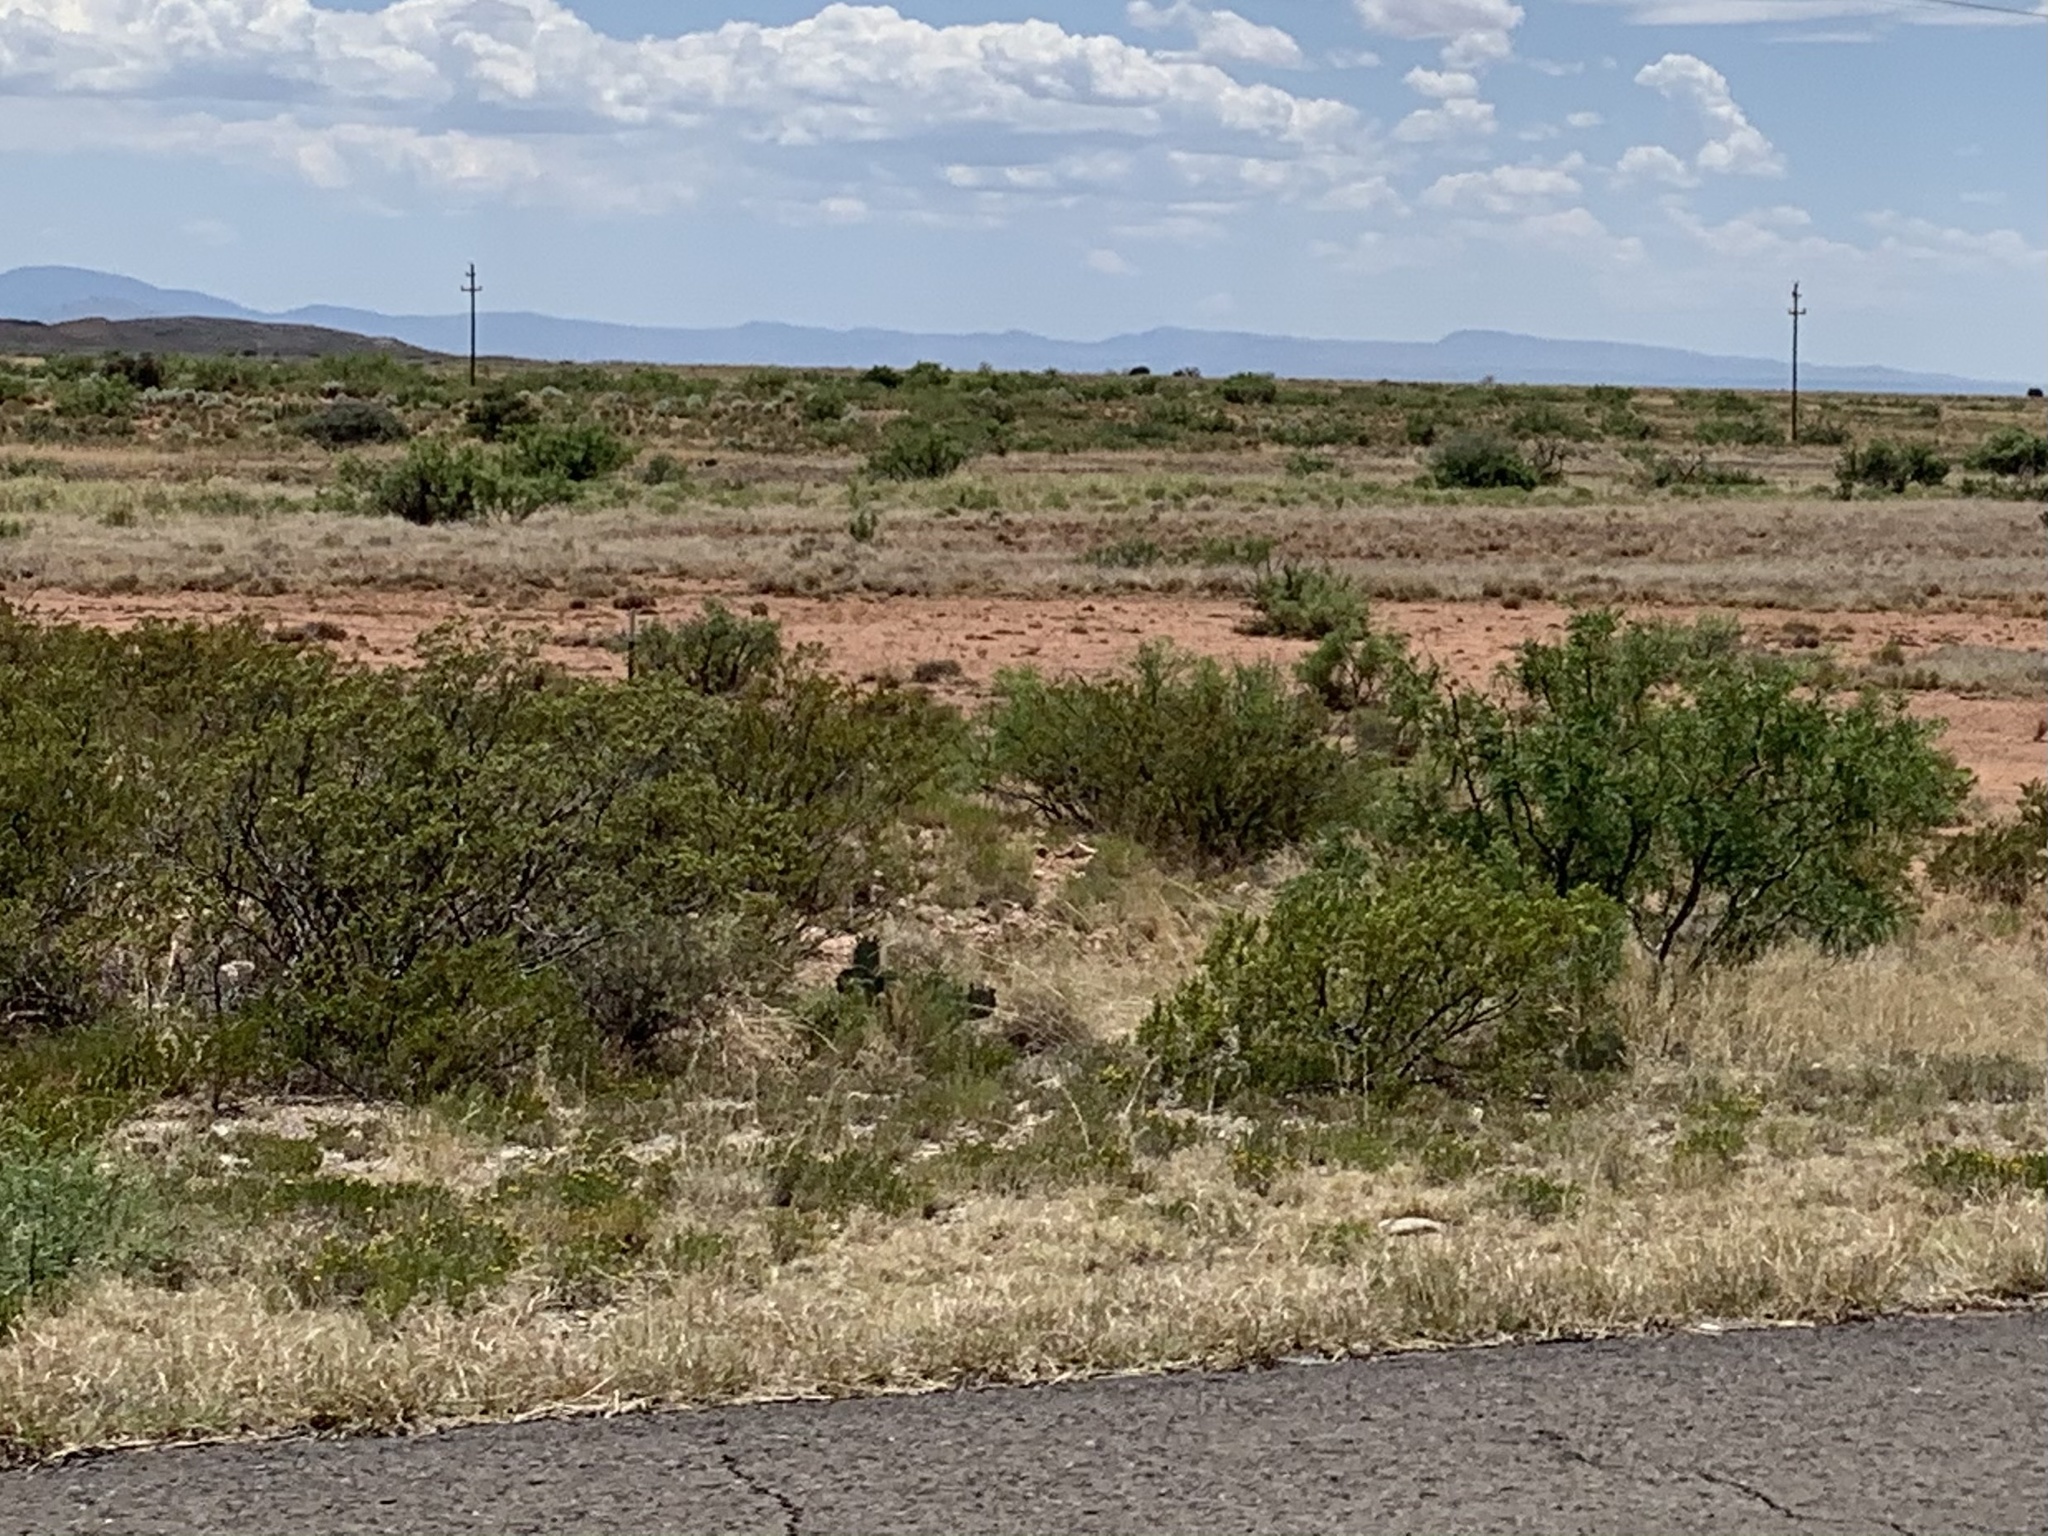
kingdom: Plantae
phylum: Tracheophyta
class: Magnoliopsida
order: Zygophyllales
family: Zygophyllaceae
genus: Larrea
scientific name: Larrea tridentata
